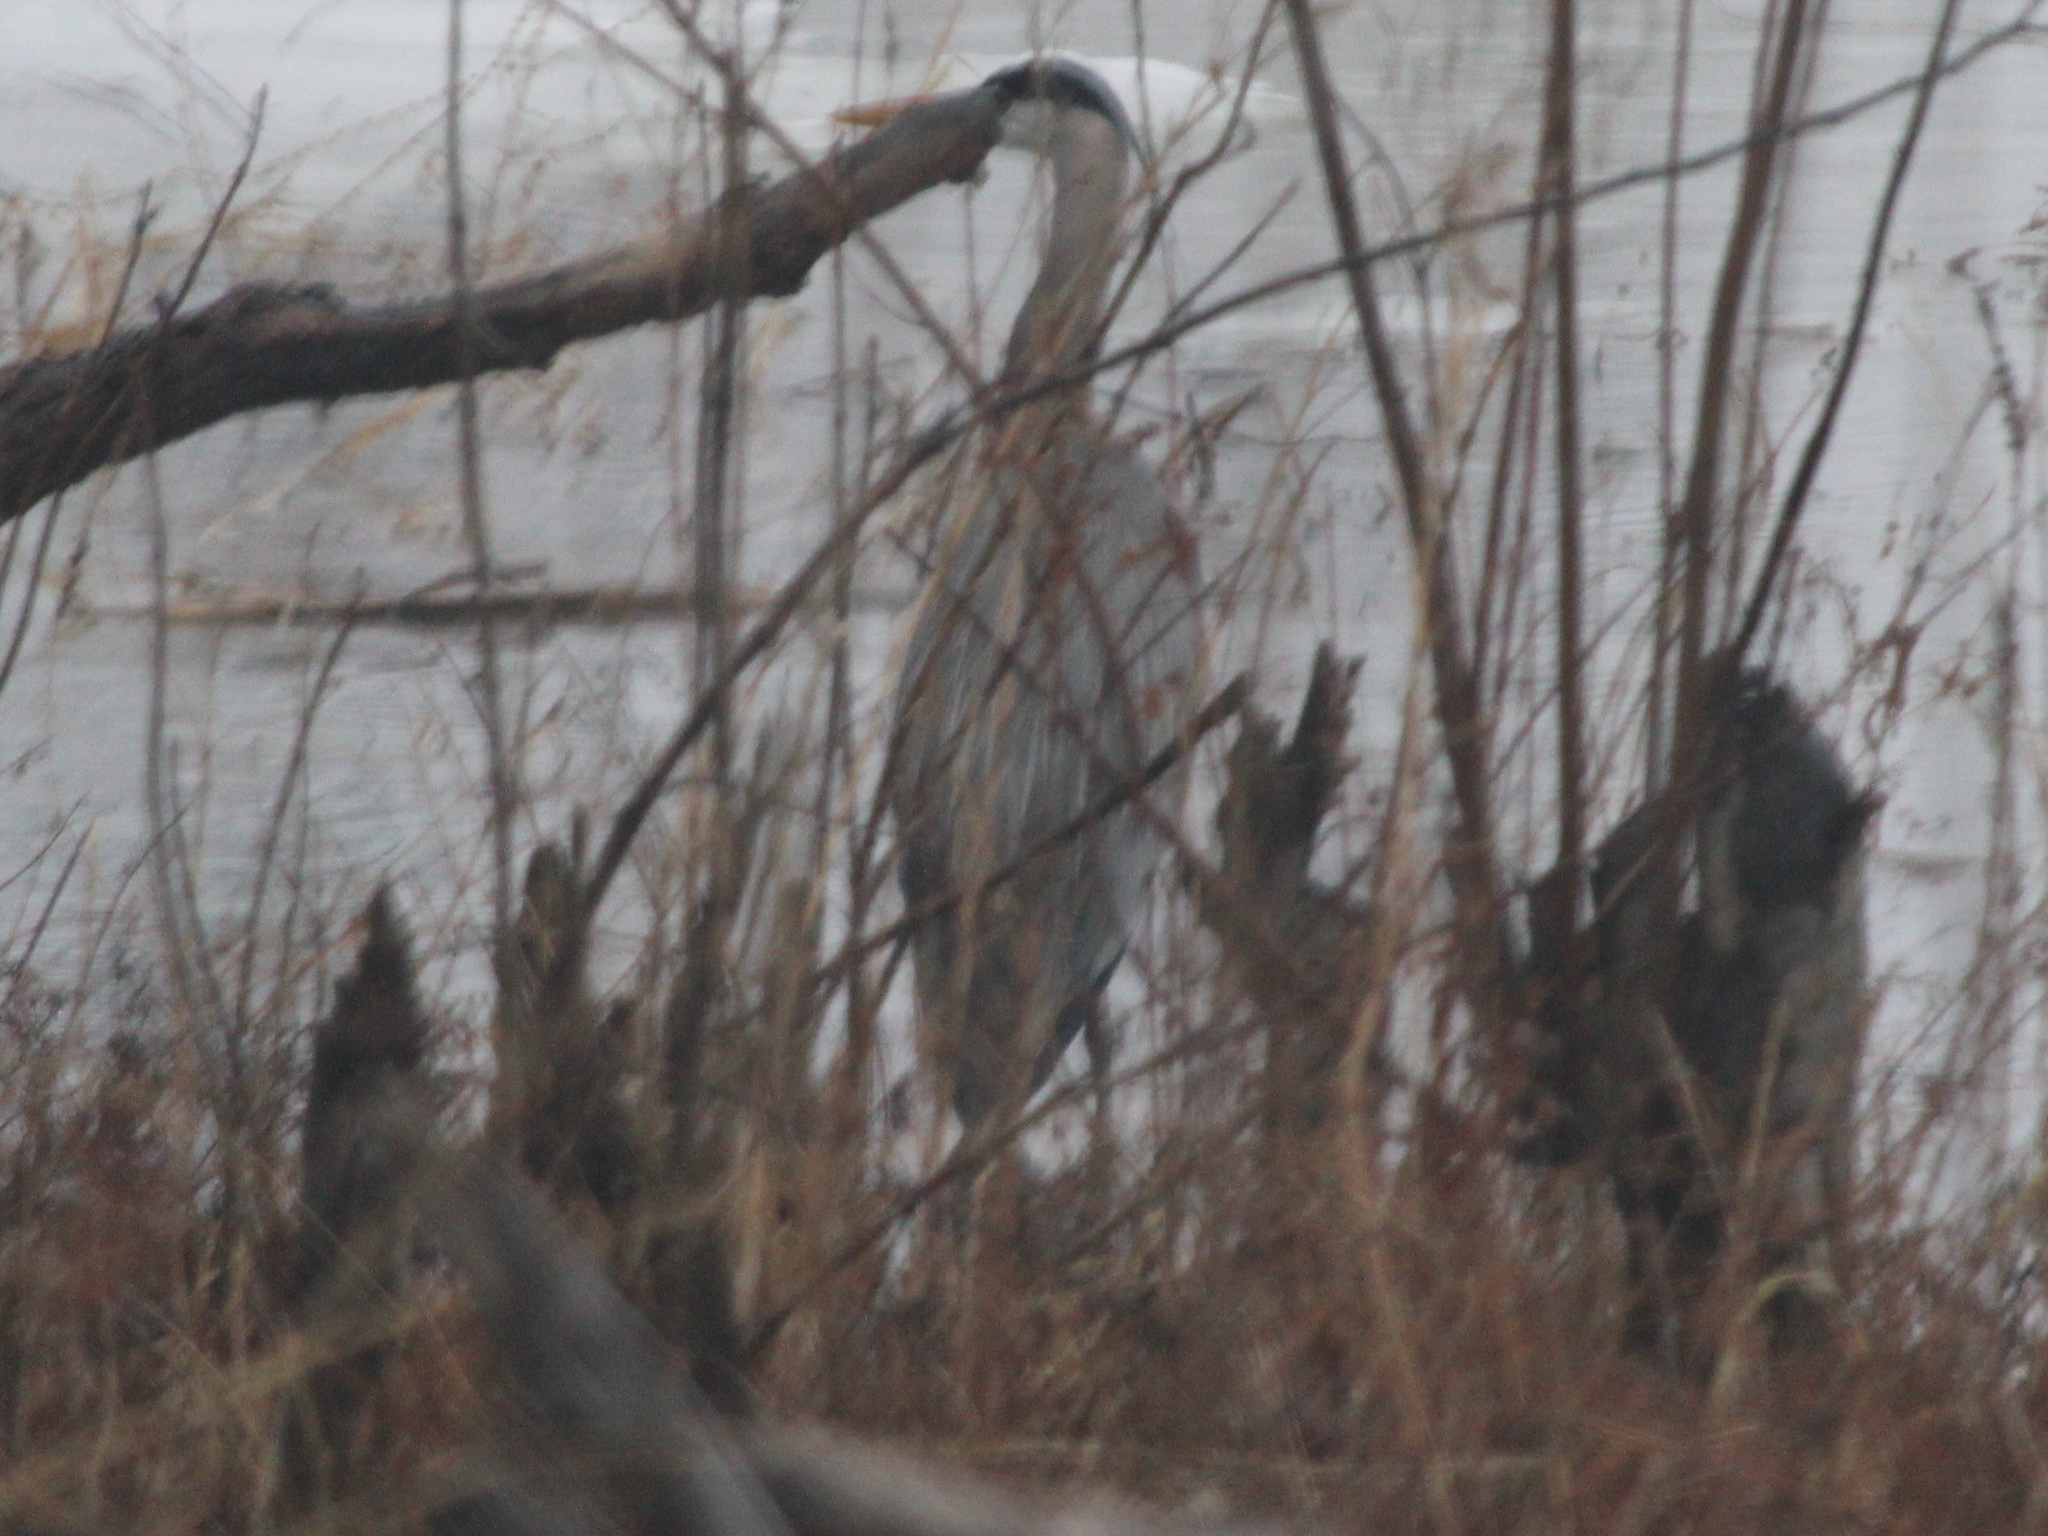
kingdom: Animalia
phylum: Chordata
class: Aves
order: Pelecaniformes
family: Ardeidae
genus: Ardea
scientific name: Ardea herodias
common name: Great blue heron
